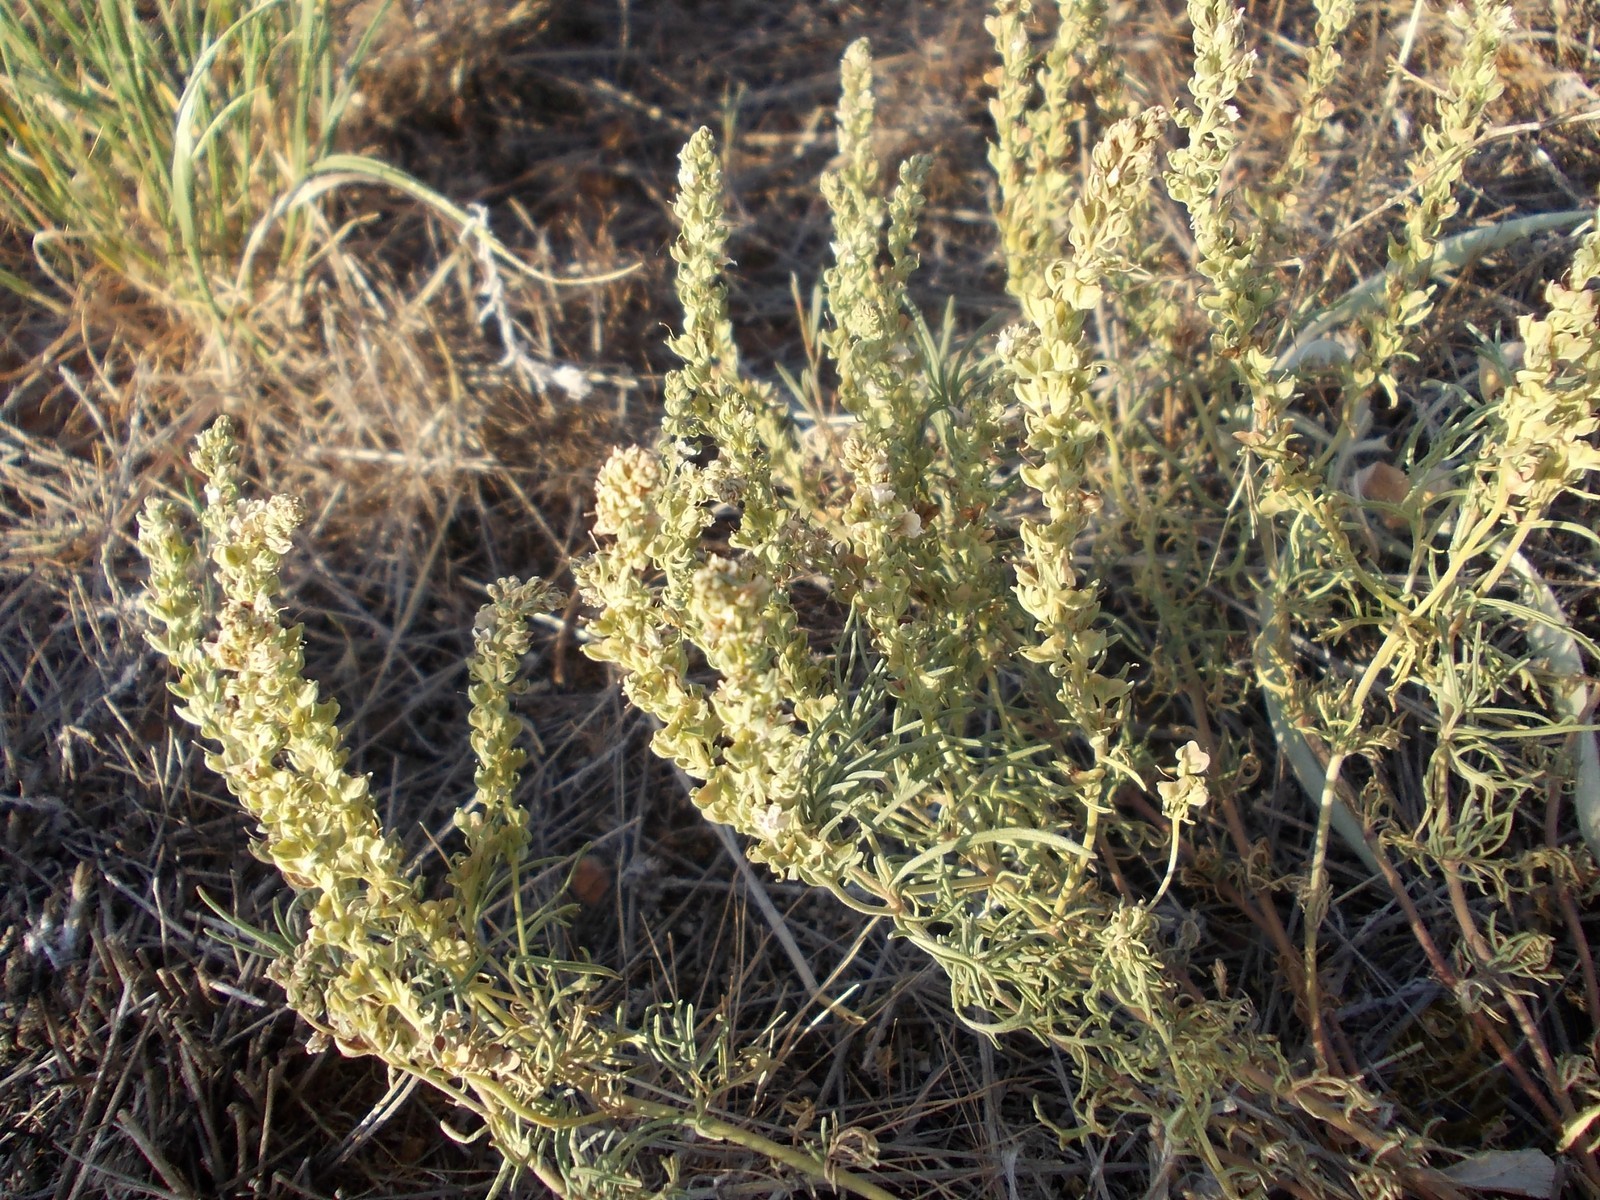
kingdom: Plantae
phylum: Tracheophyta
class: Magnoliopsida
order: Lamiales
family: Plantaginaceae
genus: Veronica
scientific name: Veronica multifida
